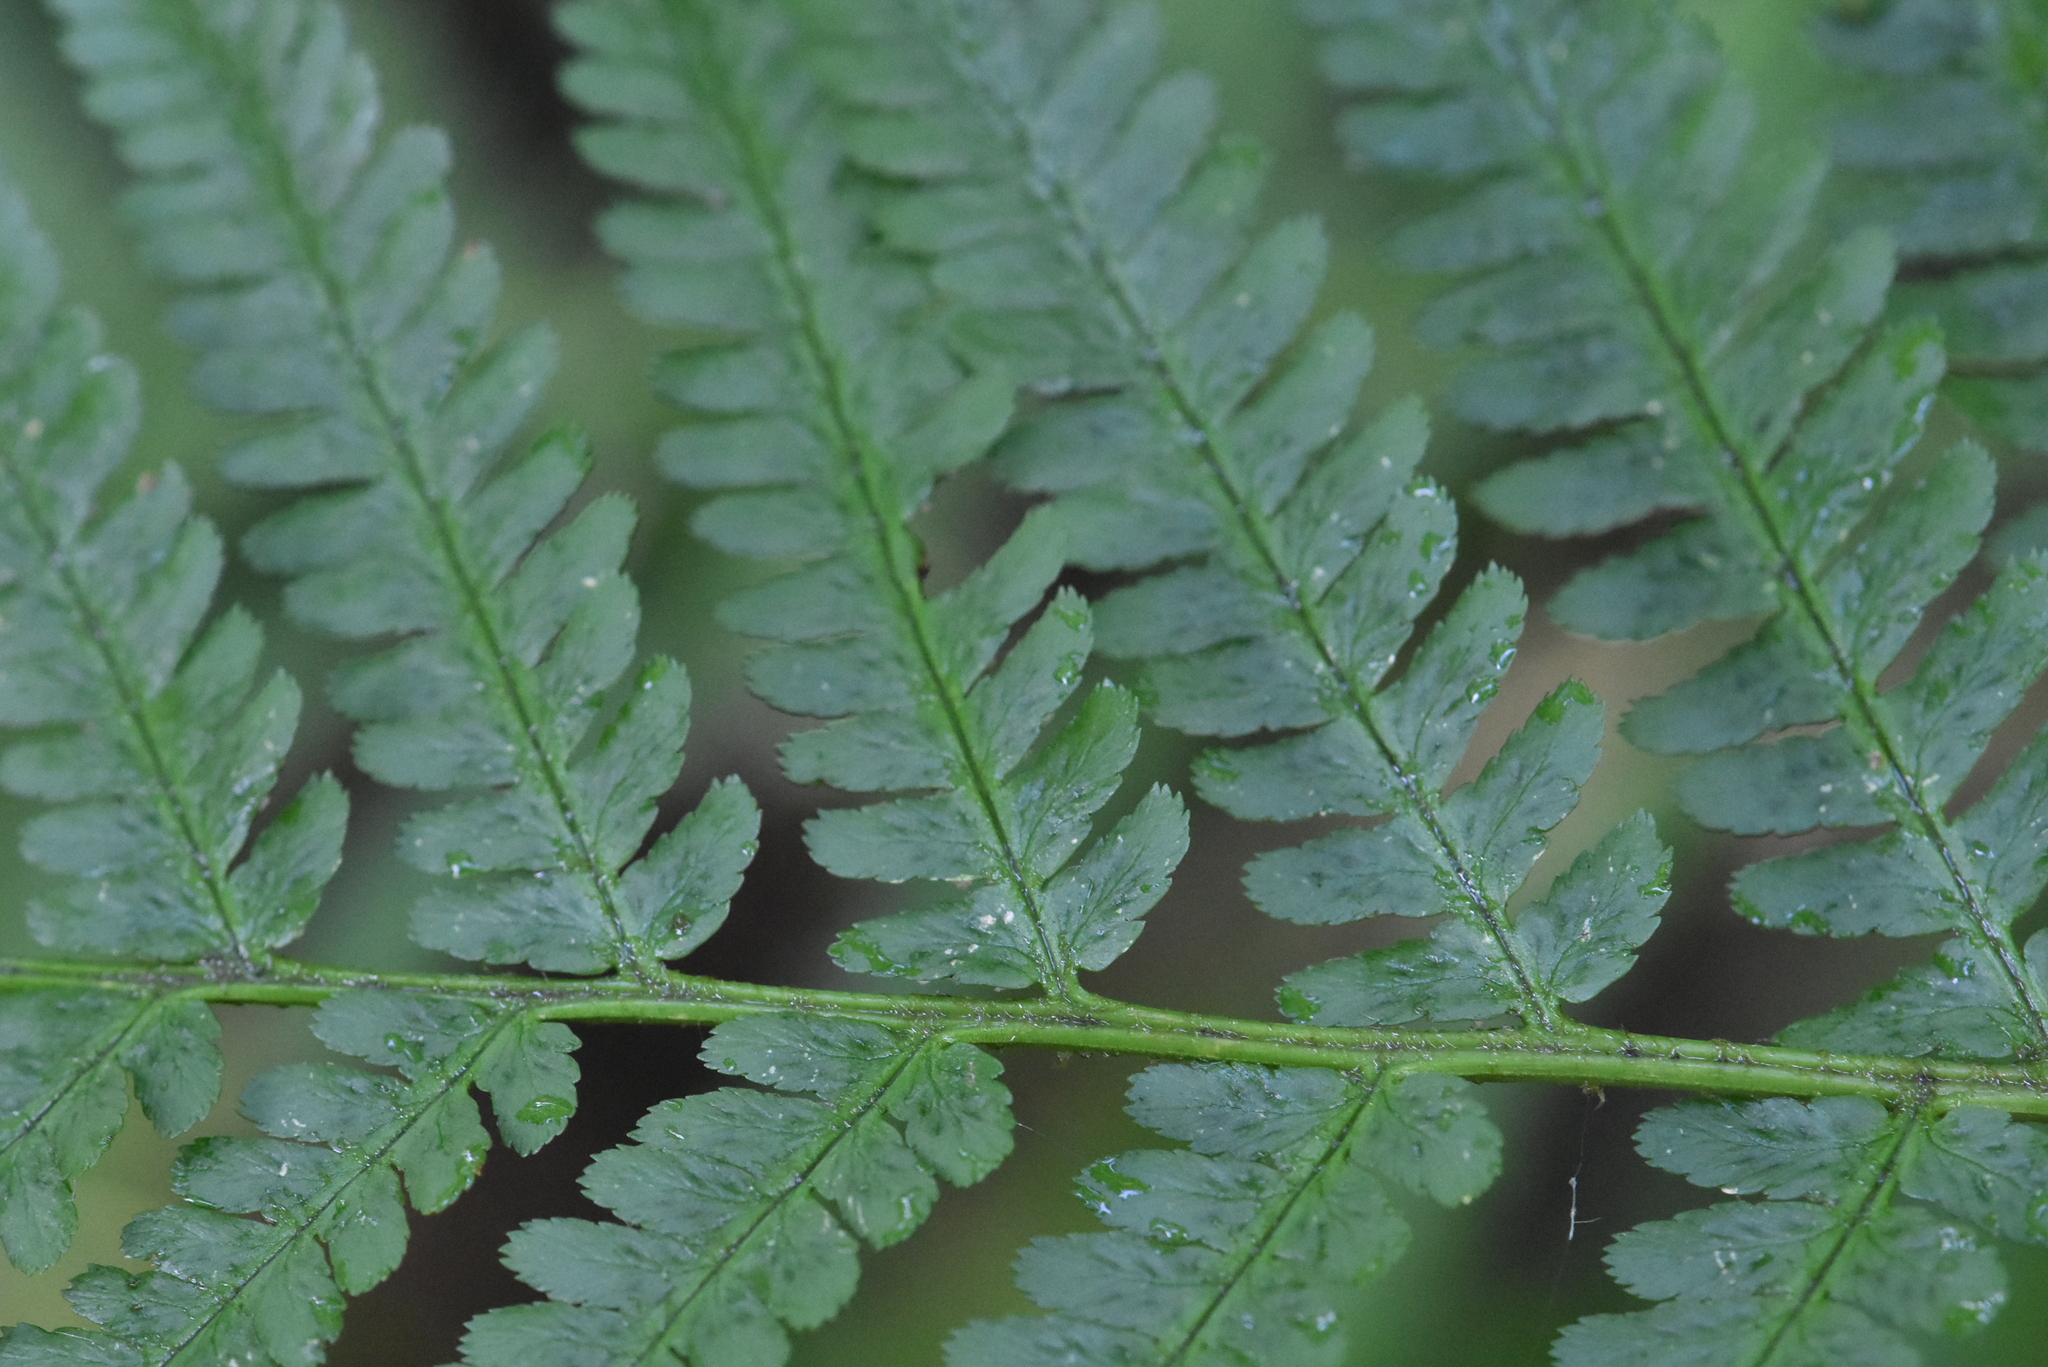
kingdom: Plantae
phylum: Tracheophyta
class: Polypodiopsida
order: Polypodiales
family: Dryopteridaceae
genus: Dryopteris
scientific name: Dryopteris filix-mas
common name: Male fern
